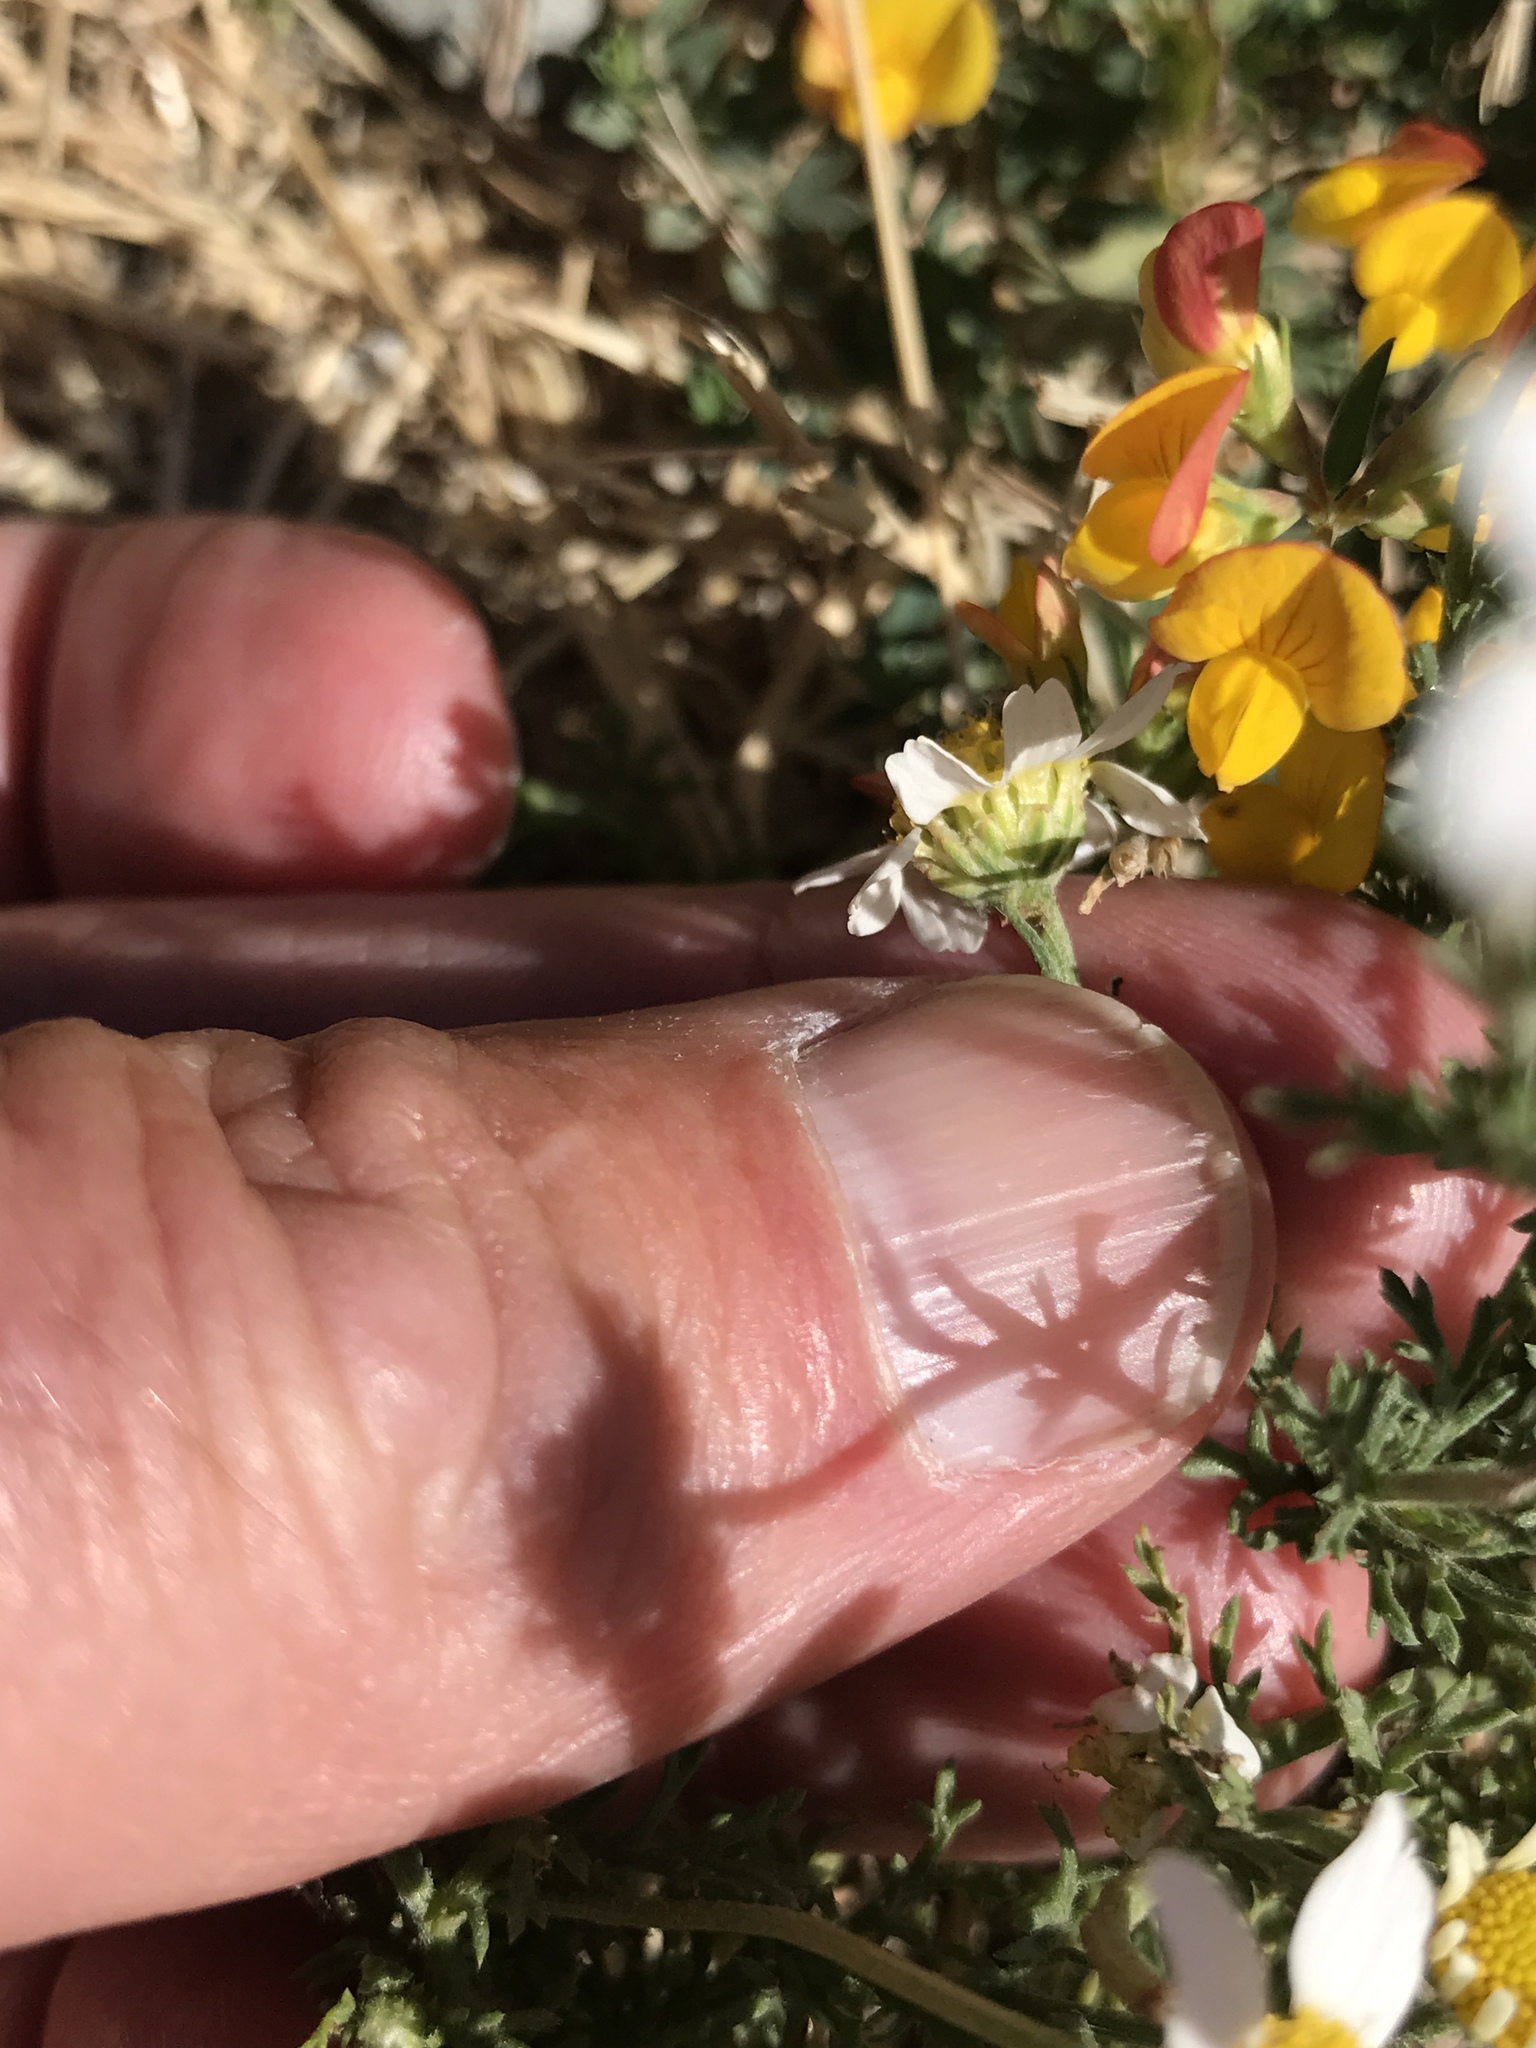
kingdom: Plantae
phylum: Tracheophyta
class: Magnoliopsida
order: Asterales
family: Asteraceae
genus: Anthemis
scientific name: Anthemis cotula
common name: Stinking chamomile
